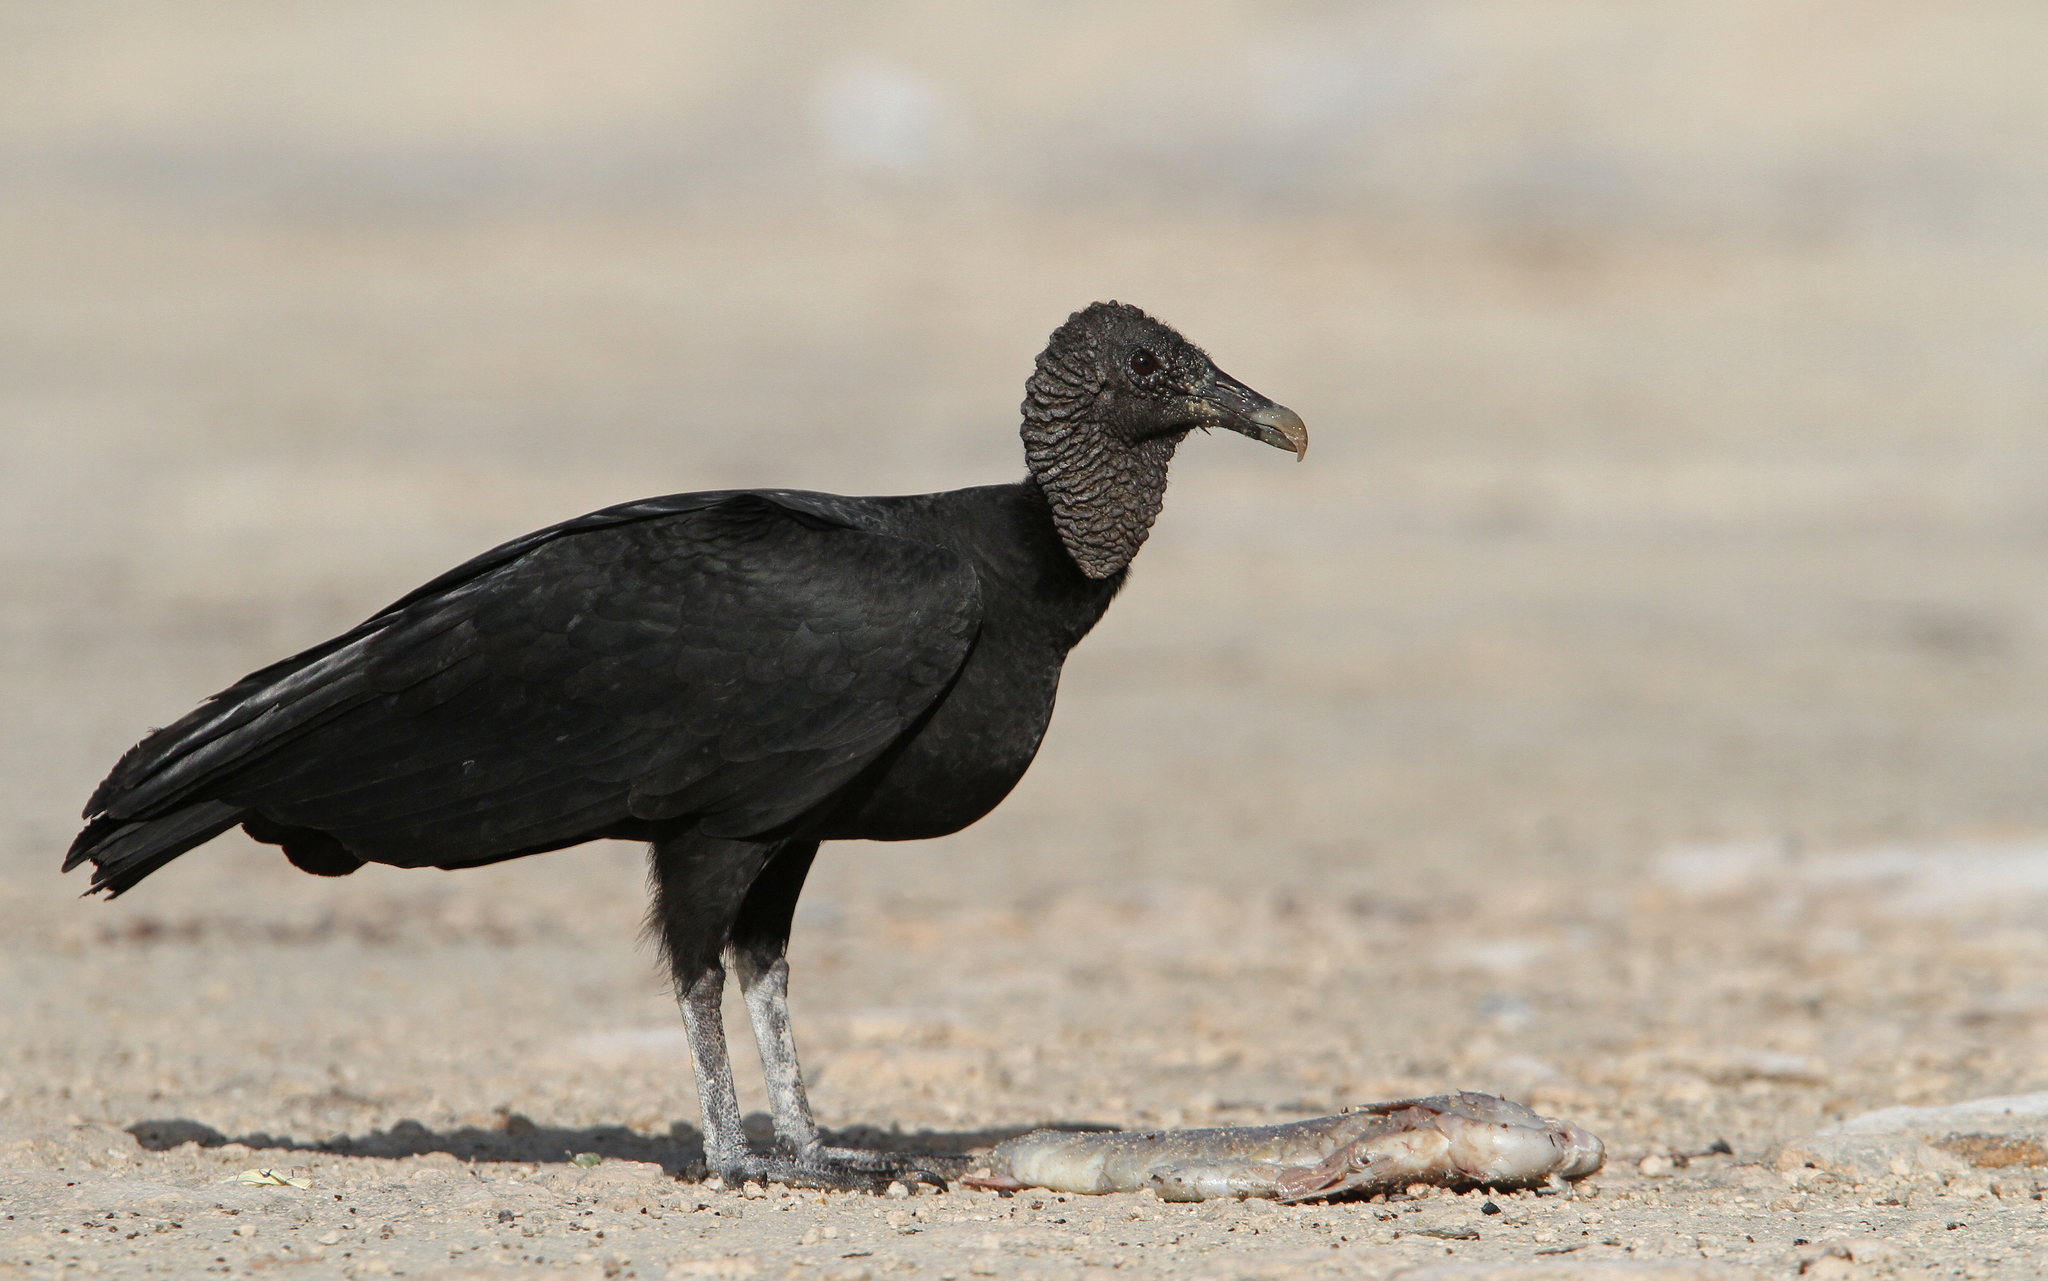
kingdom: Animalia
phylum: Chordata
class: Aves
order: Accipitriformes
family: Cathartidae
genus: Coragyps
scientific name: Coragyps atratus
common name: Black vulture
